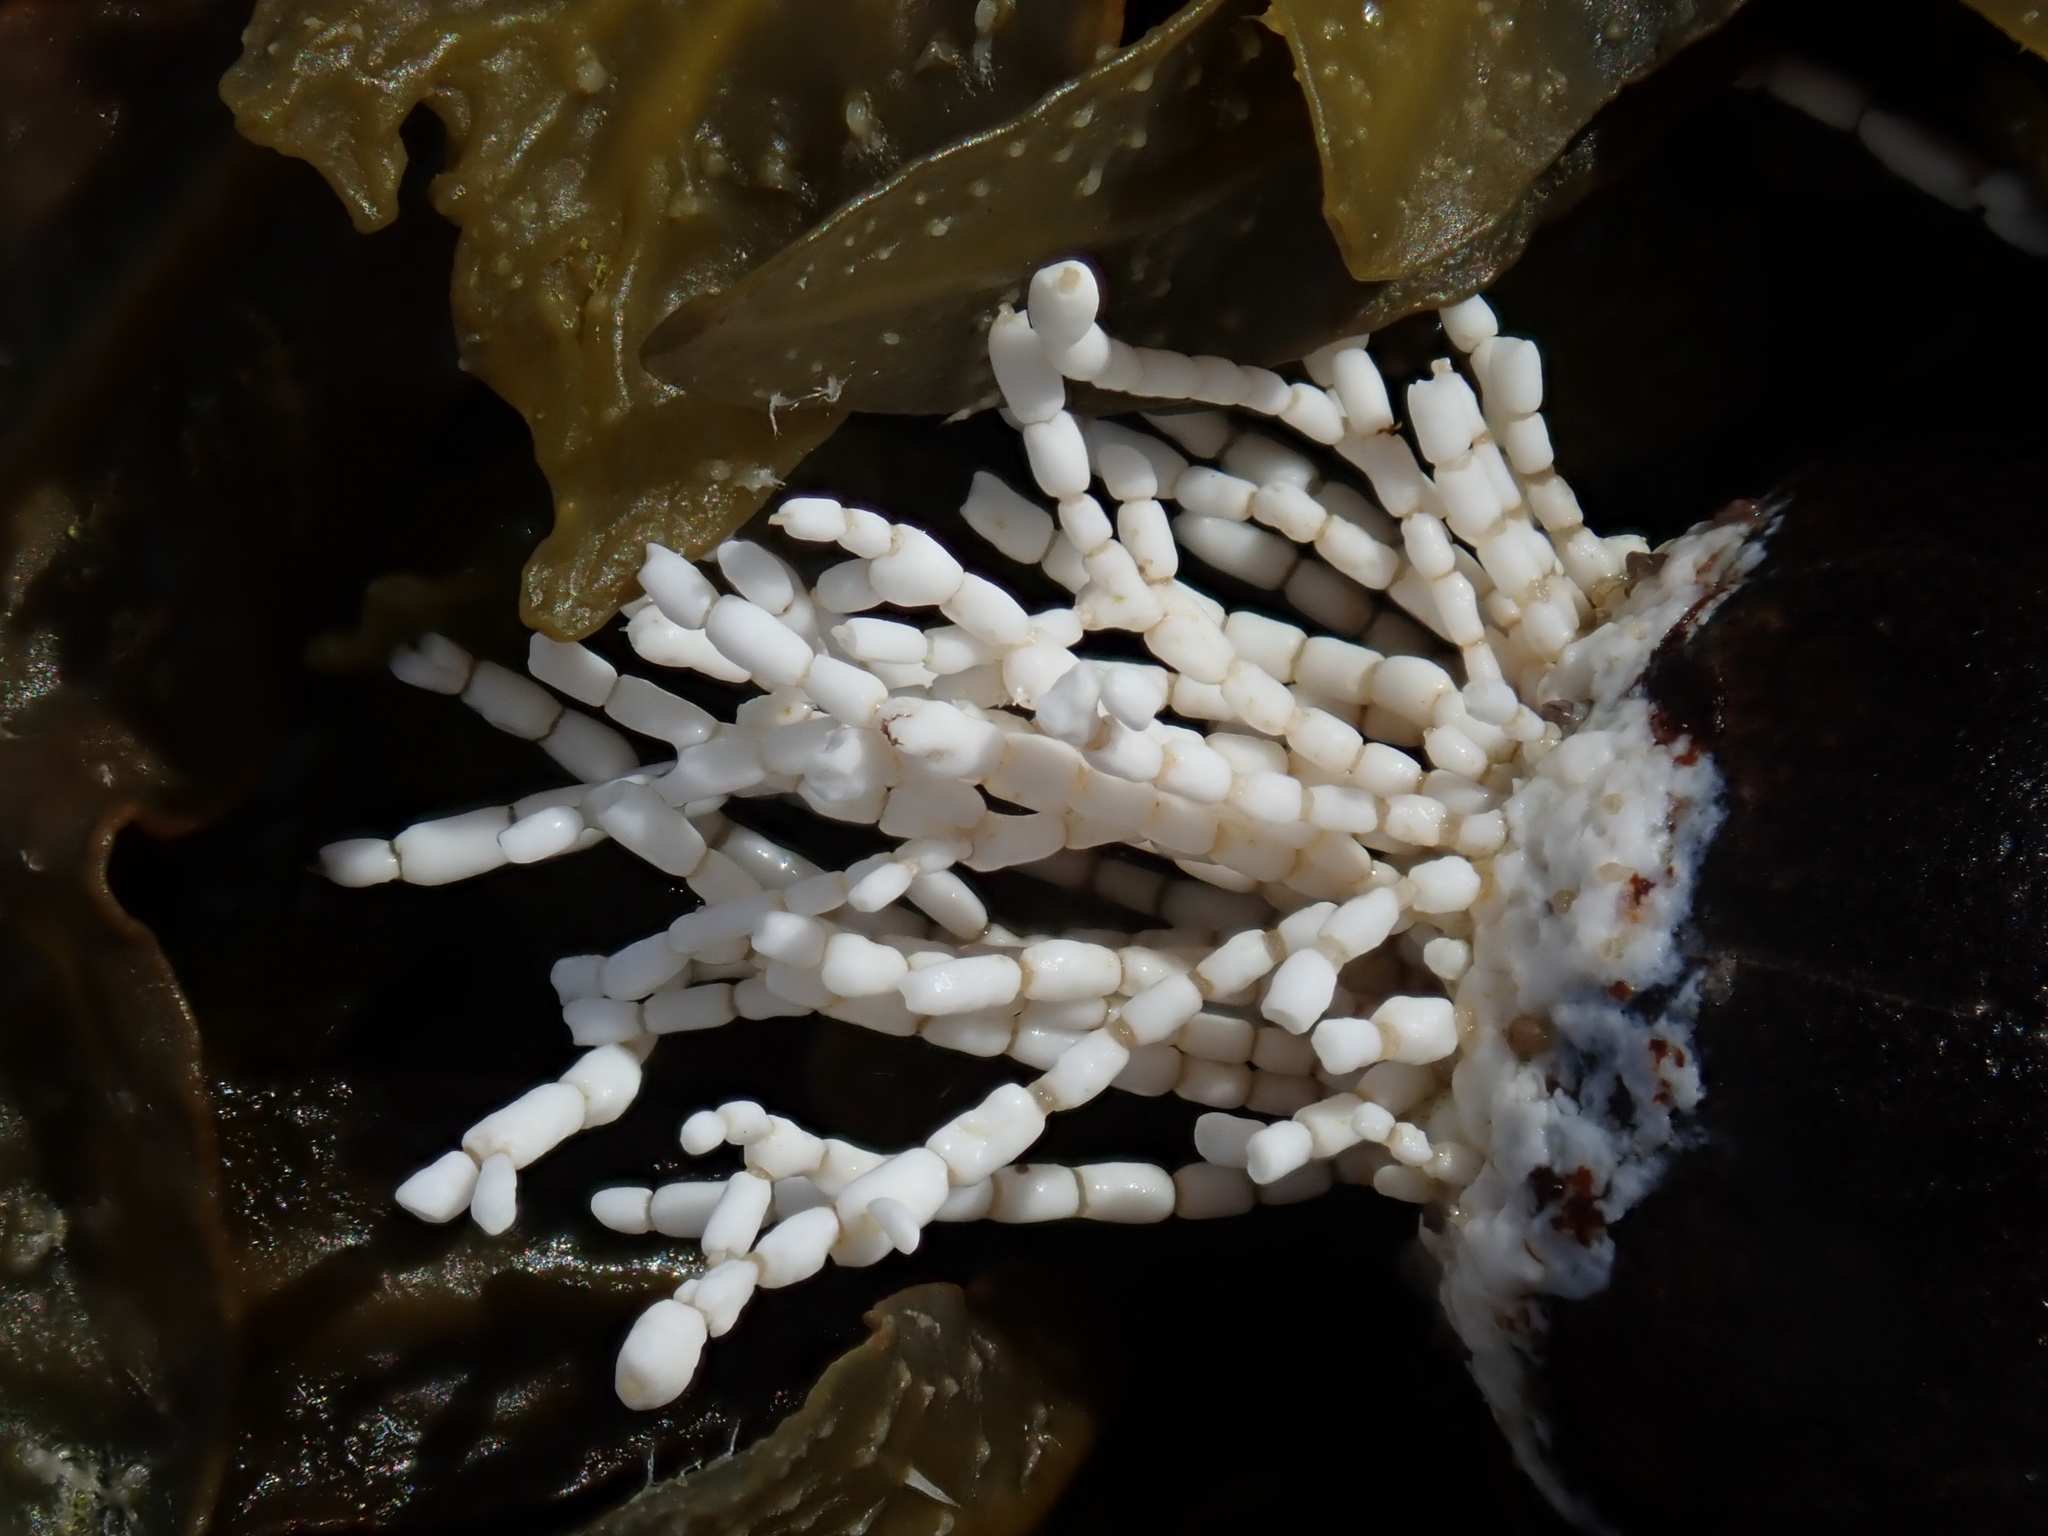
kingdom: Plantae
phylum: Rhodophyta
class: Florideophyceae
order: Corallinales
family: Corallinaceae
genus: Corallina
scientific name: Corallina officinalis
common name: Coral weed
